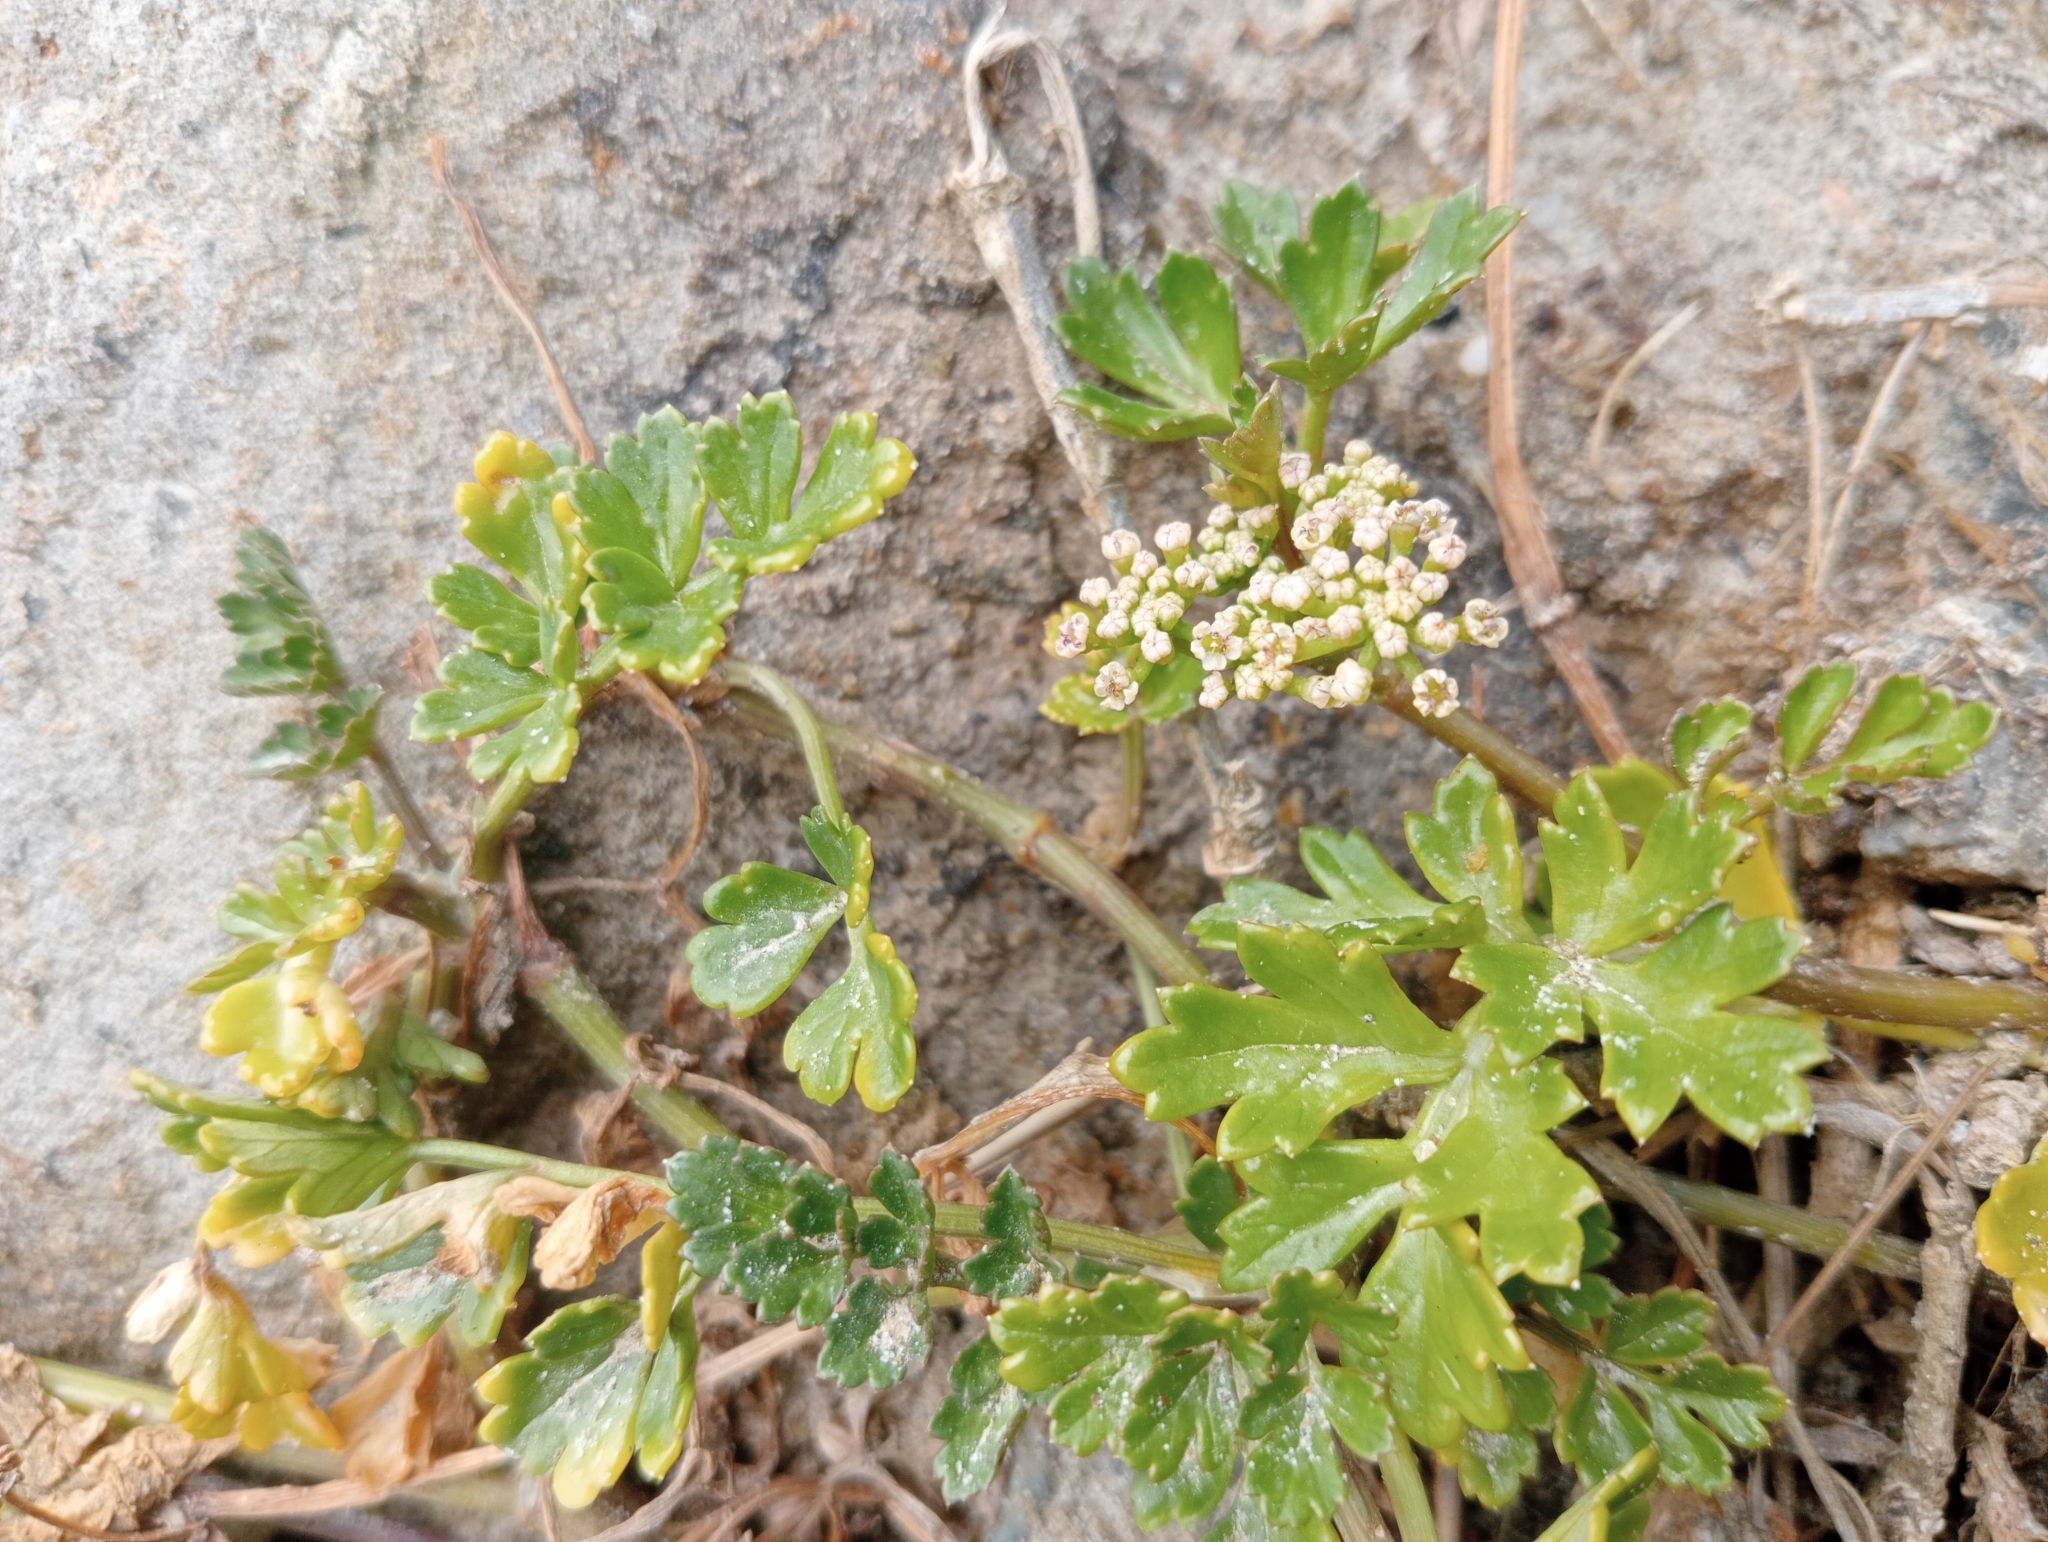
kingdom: Plantae
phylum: Tracheophyta
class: Magnoliopsida
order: Apiales
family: Apiaceae
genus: Apium
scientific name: Apium prostratum
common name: Prostrate marshwort
